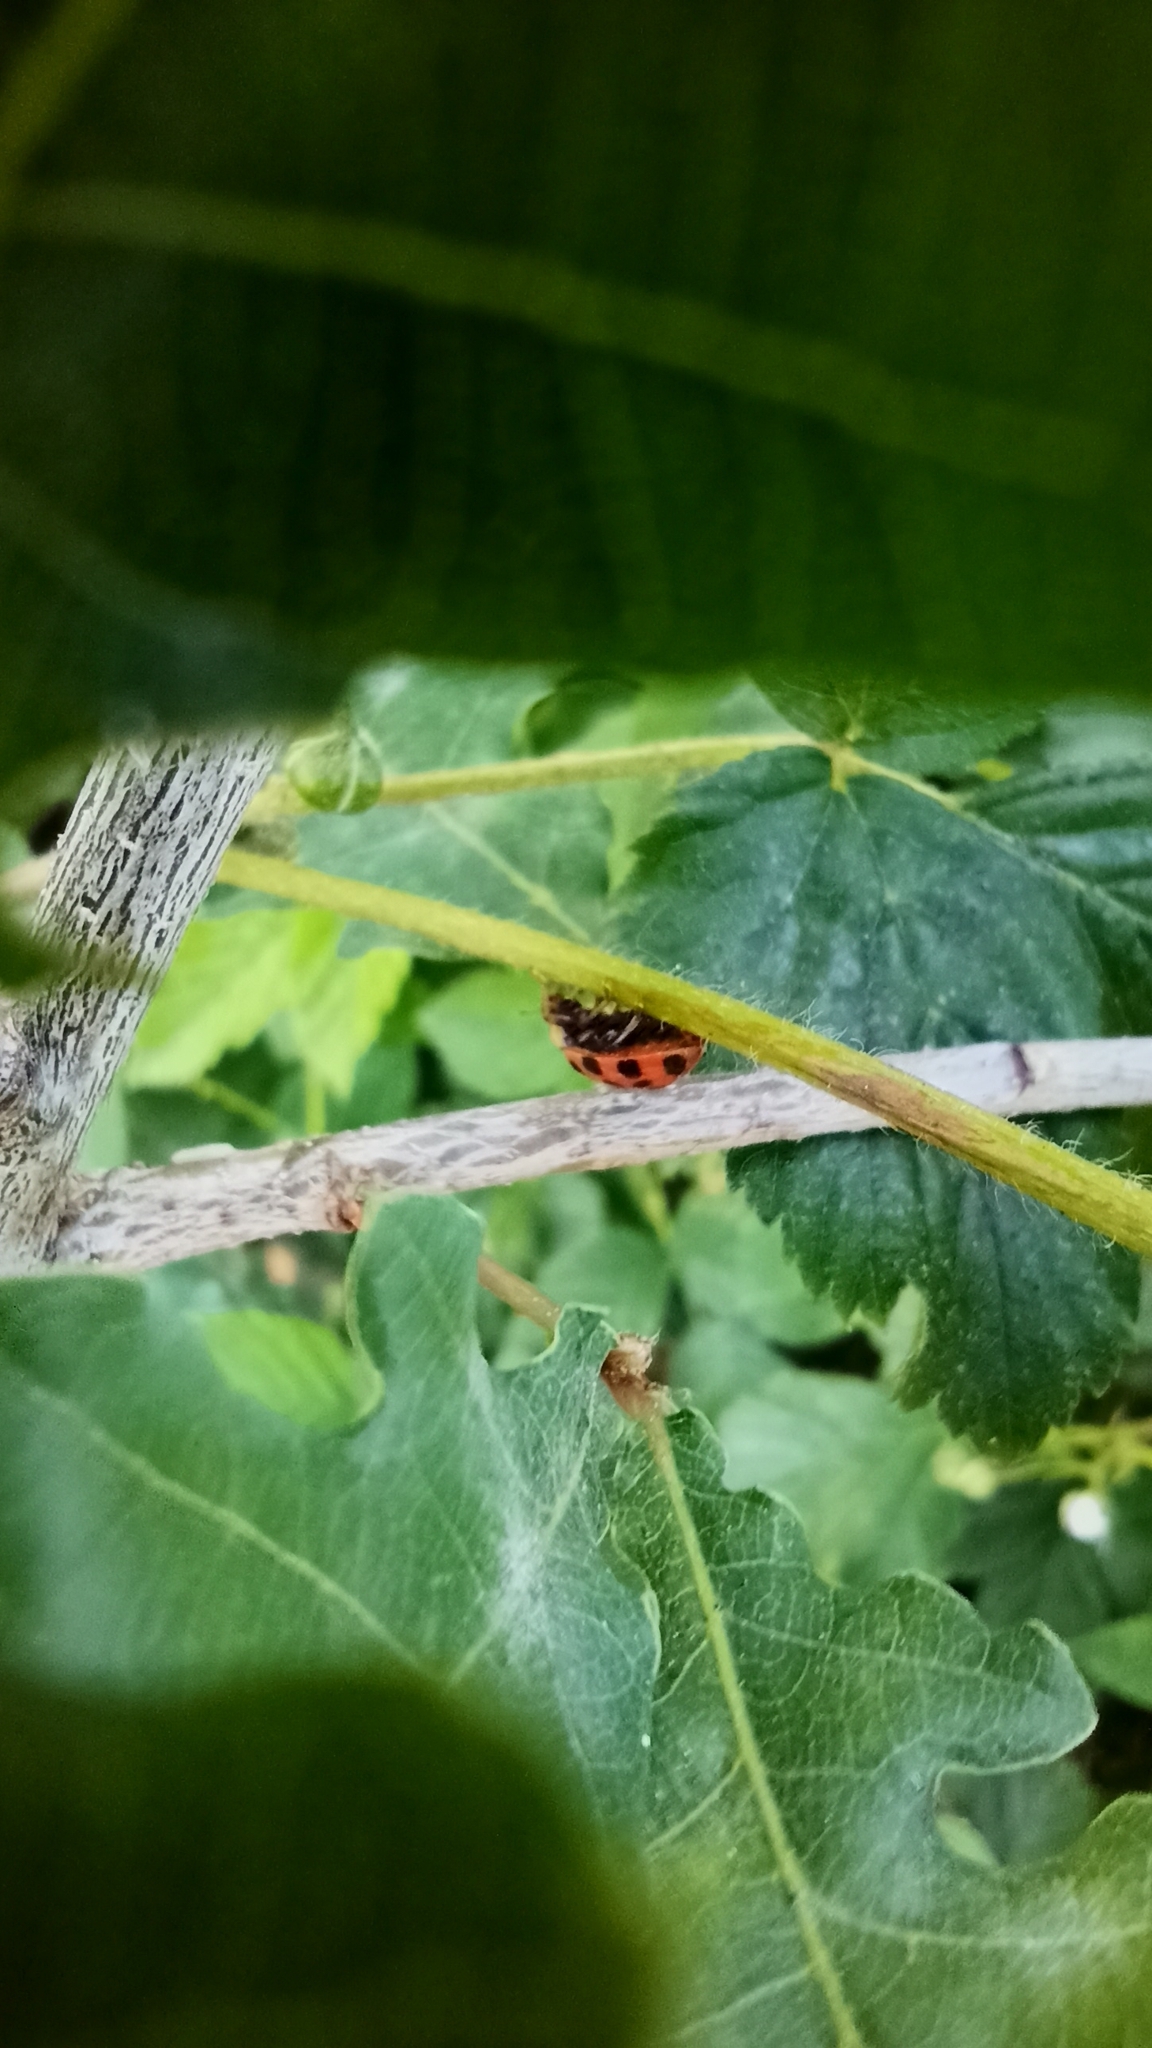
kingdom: Animalia
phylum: Arthropoda
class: Insecta
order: Coleoptera
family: Coccinellidae
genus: Harmonia
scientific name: Harmonia axyridis
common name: Harlequin ladybird
